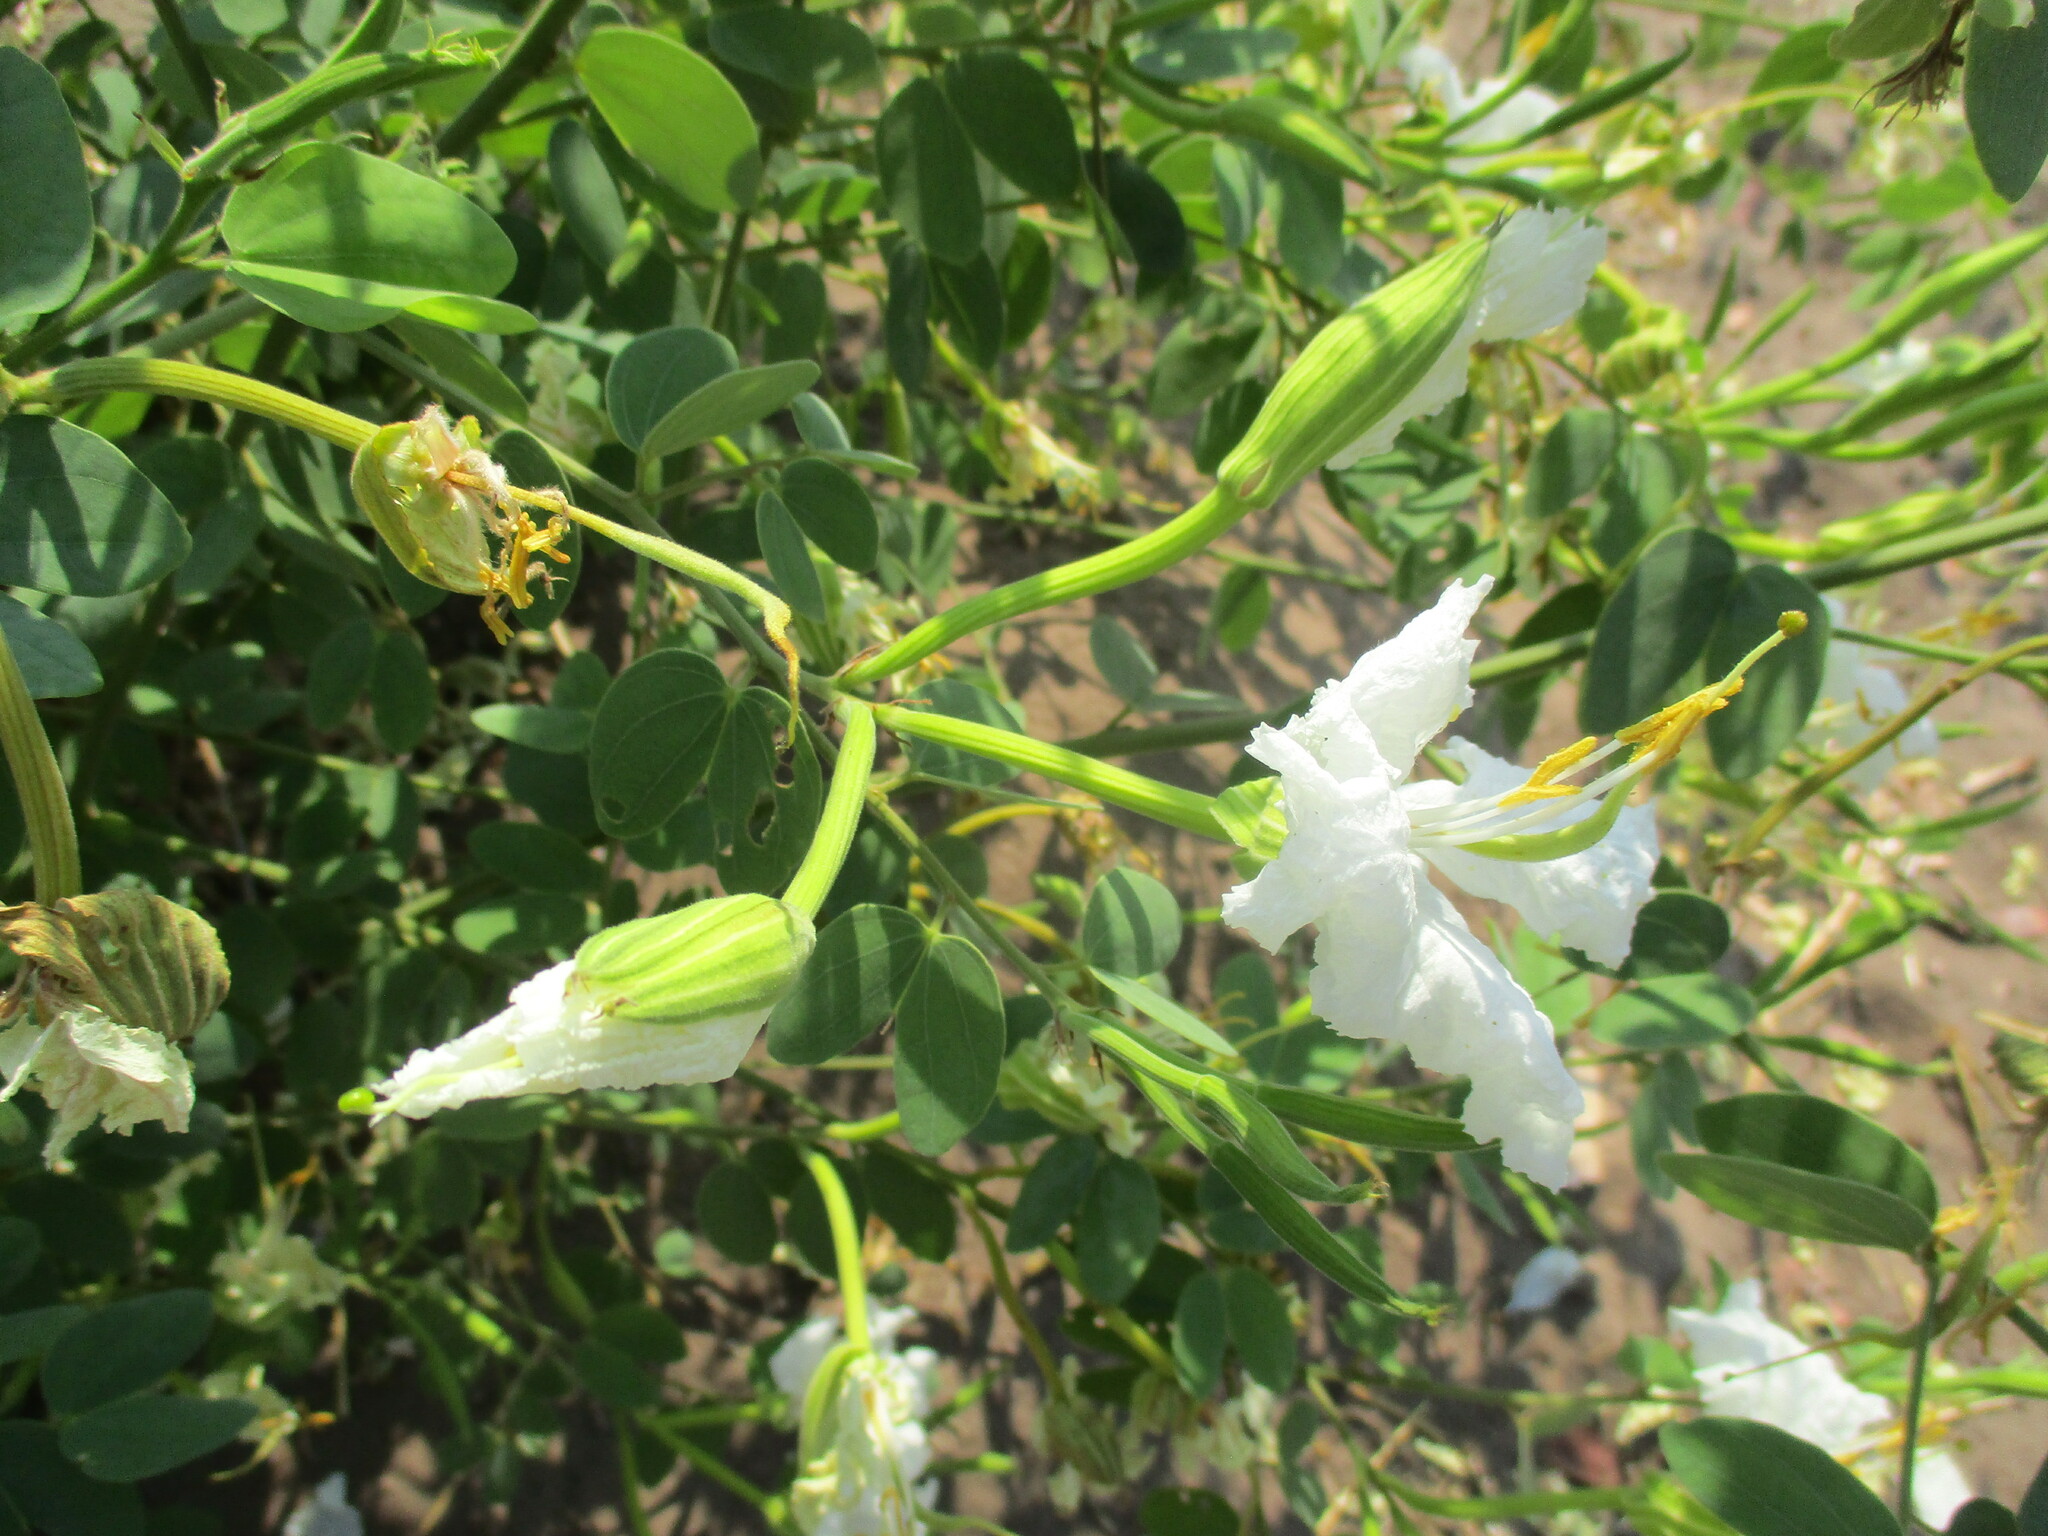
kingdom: Plantae
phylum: Tracheophyta
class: Magnoliopsida
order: Fabales
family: Fabaceae
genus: Bauhinia
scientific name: Bauhinia macrantha
